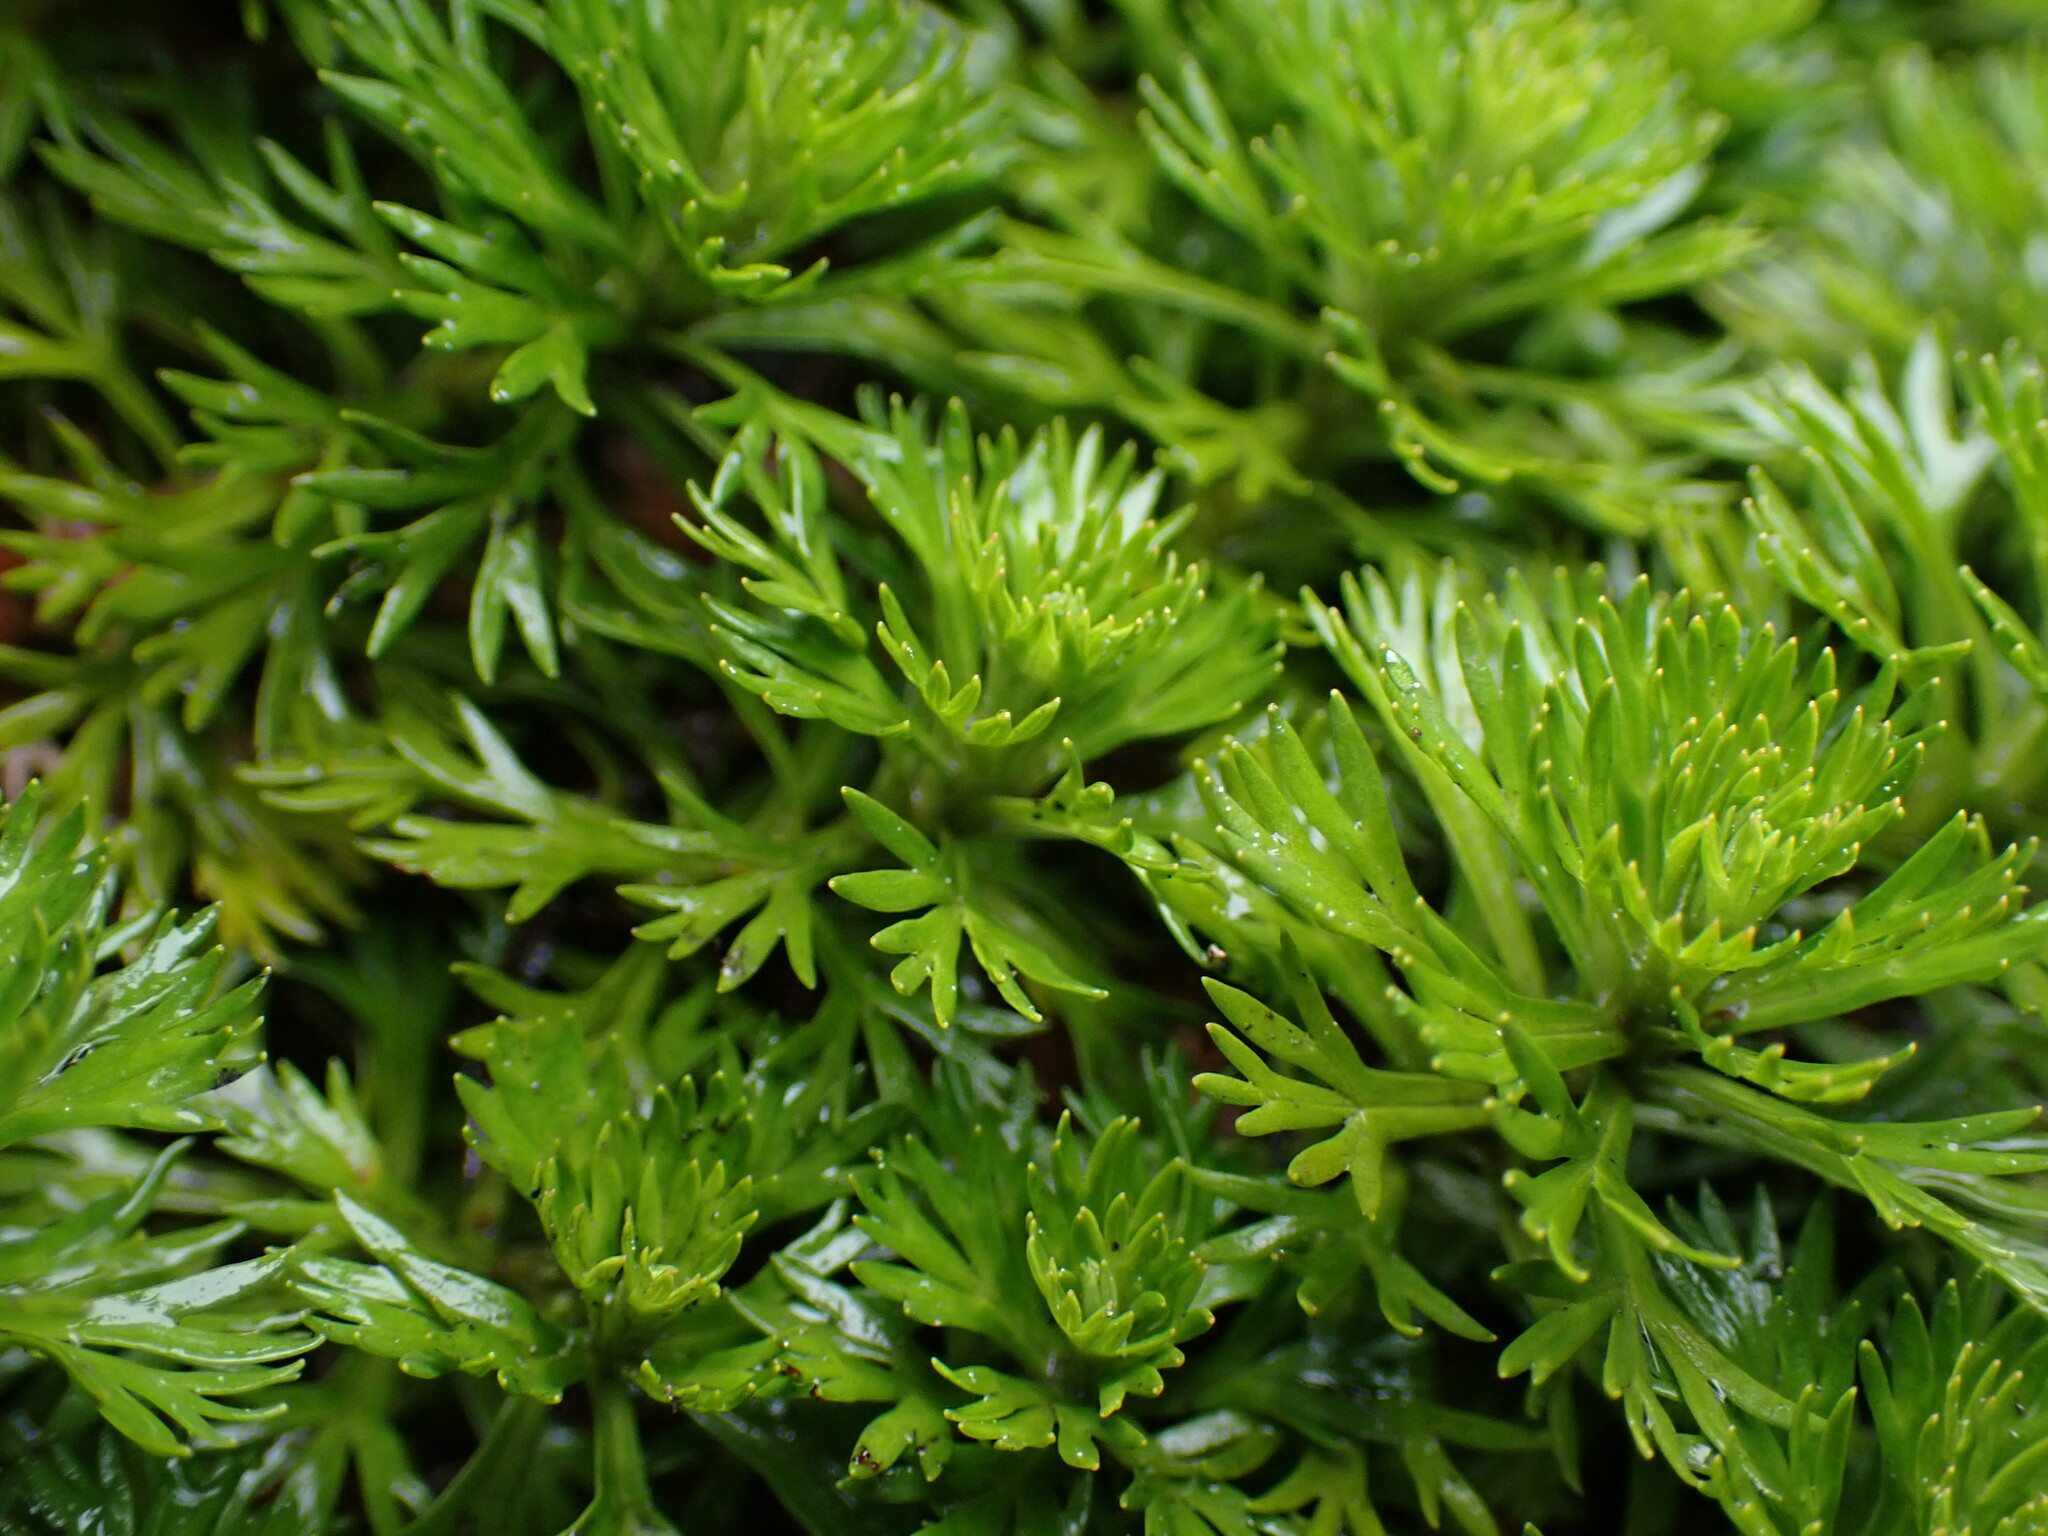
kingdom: Plantae
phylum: Tracheophyta
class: Magnoliopsida
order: Rosales
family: Rosaceae
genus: Luetkea
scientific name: Luetkea pectinata
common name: Partridgefoot
